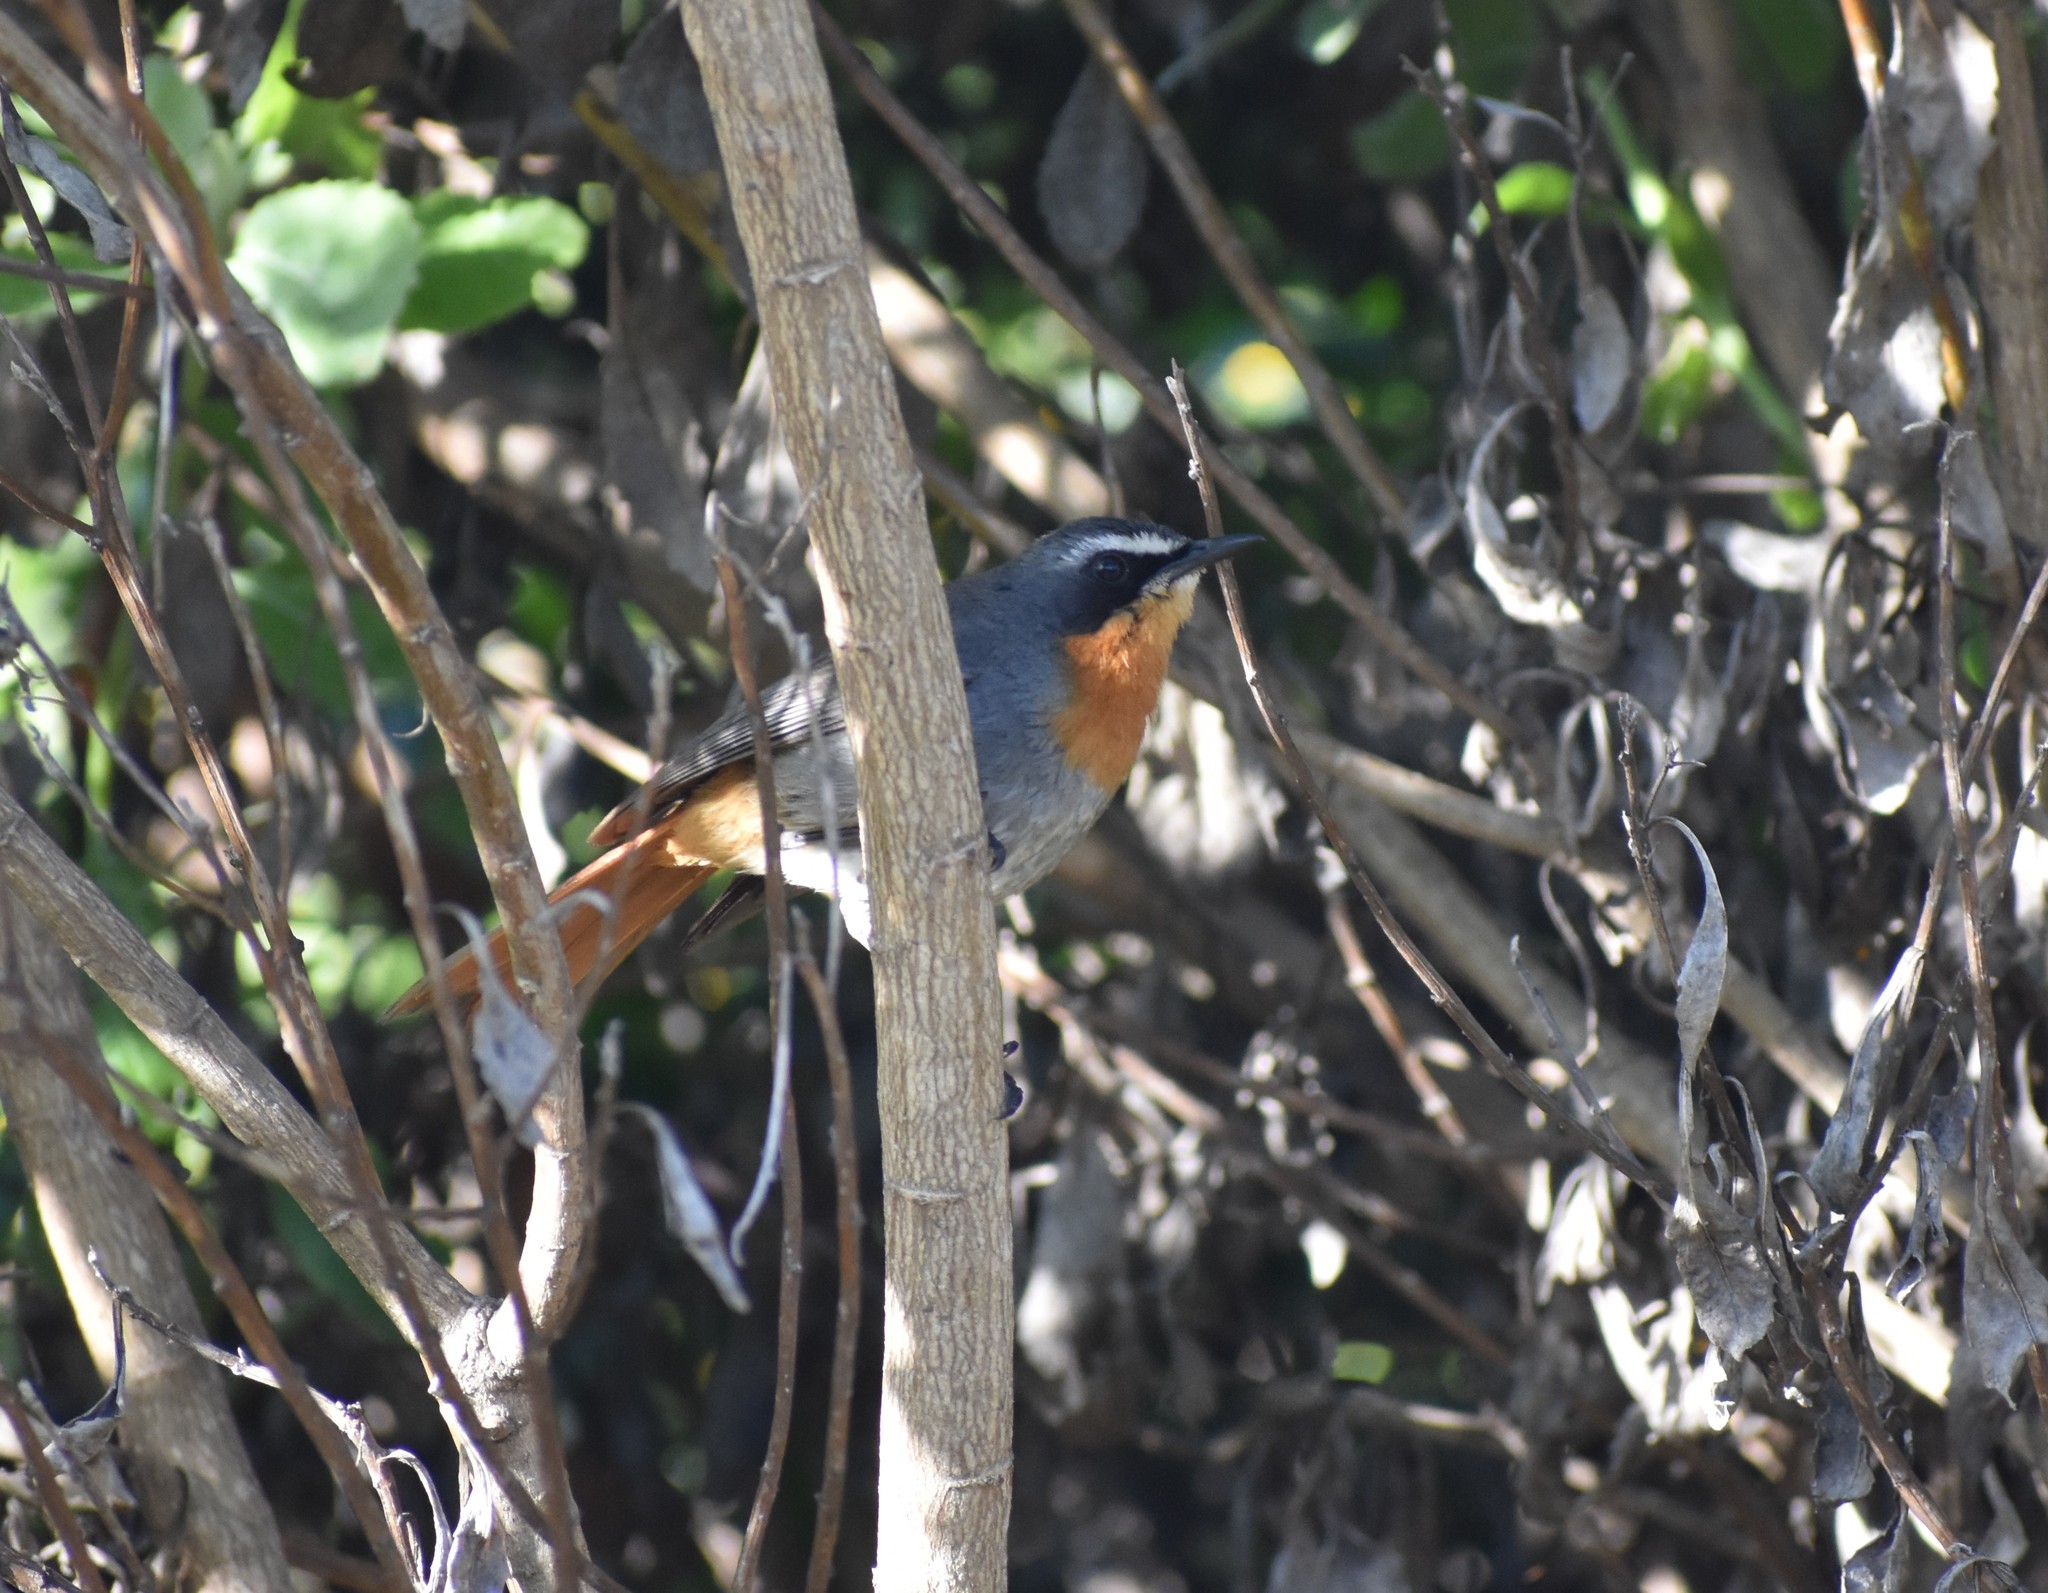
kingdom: Animalia
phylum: Chordata
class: Aves
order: Passeriformes
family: Muscicapidae
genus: Cossypha
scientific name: Cossypha caffra
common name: Cape robin-chat
